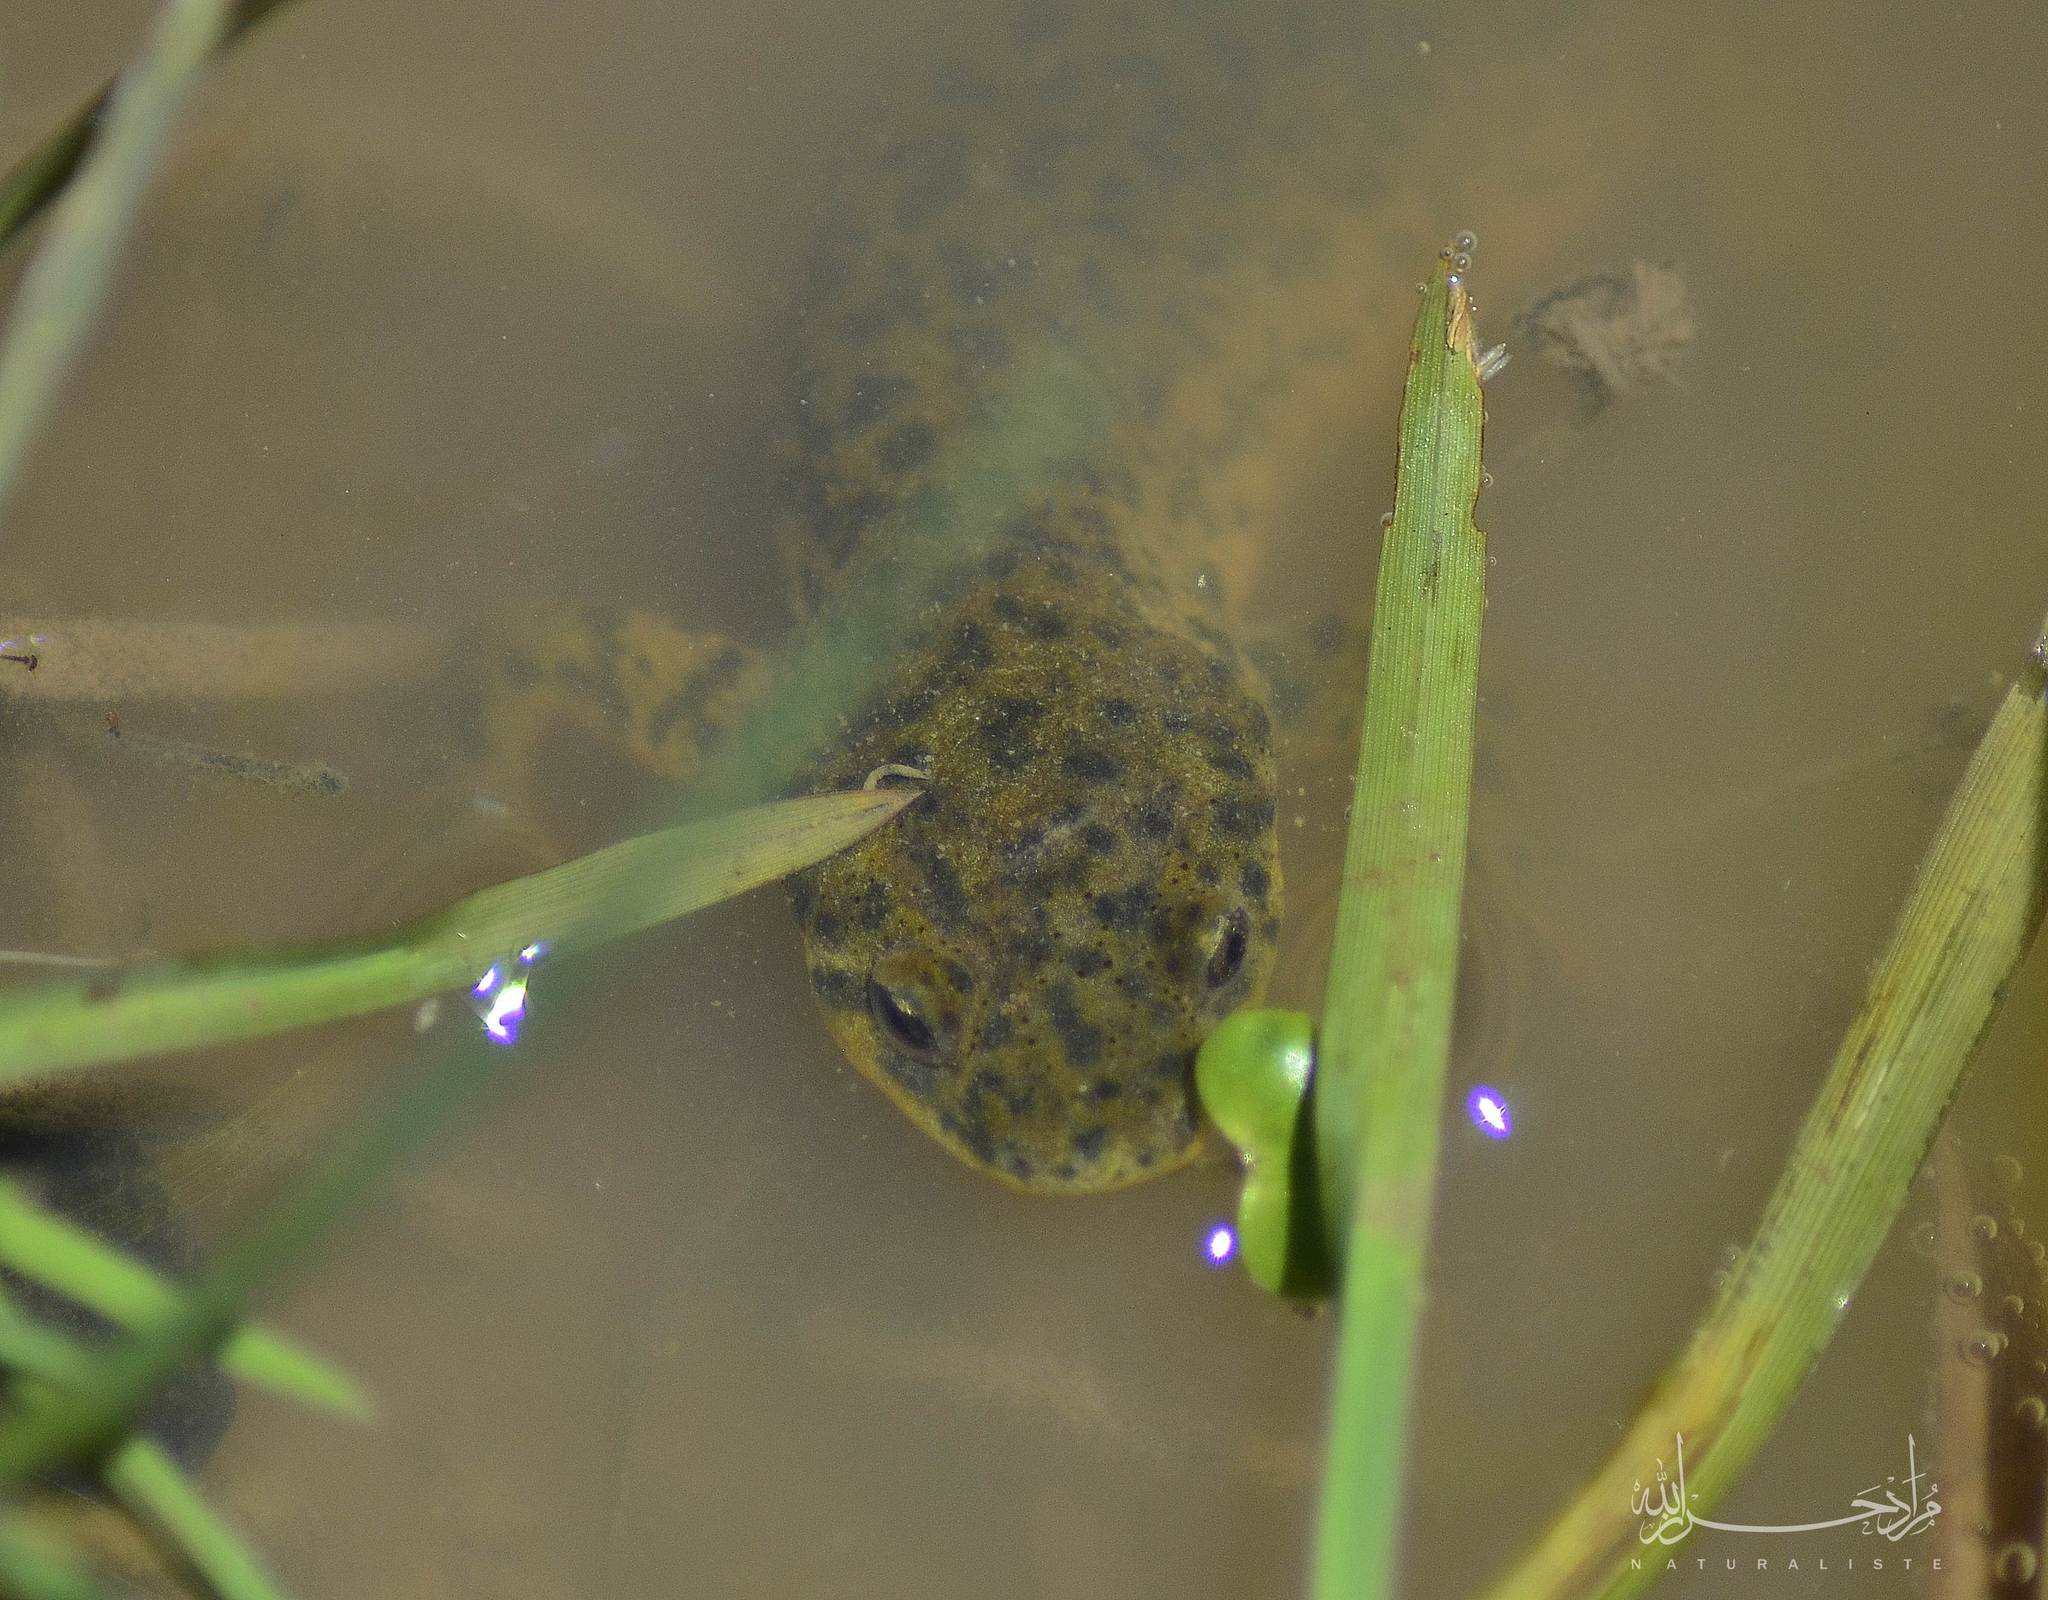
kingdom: Animalia
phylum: Chordata
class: Amphibia
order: Caudata
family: Salamandridae
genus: Pleurodeles
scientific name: Pleurodeles nebulosus
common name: Algerian ribbed newt
